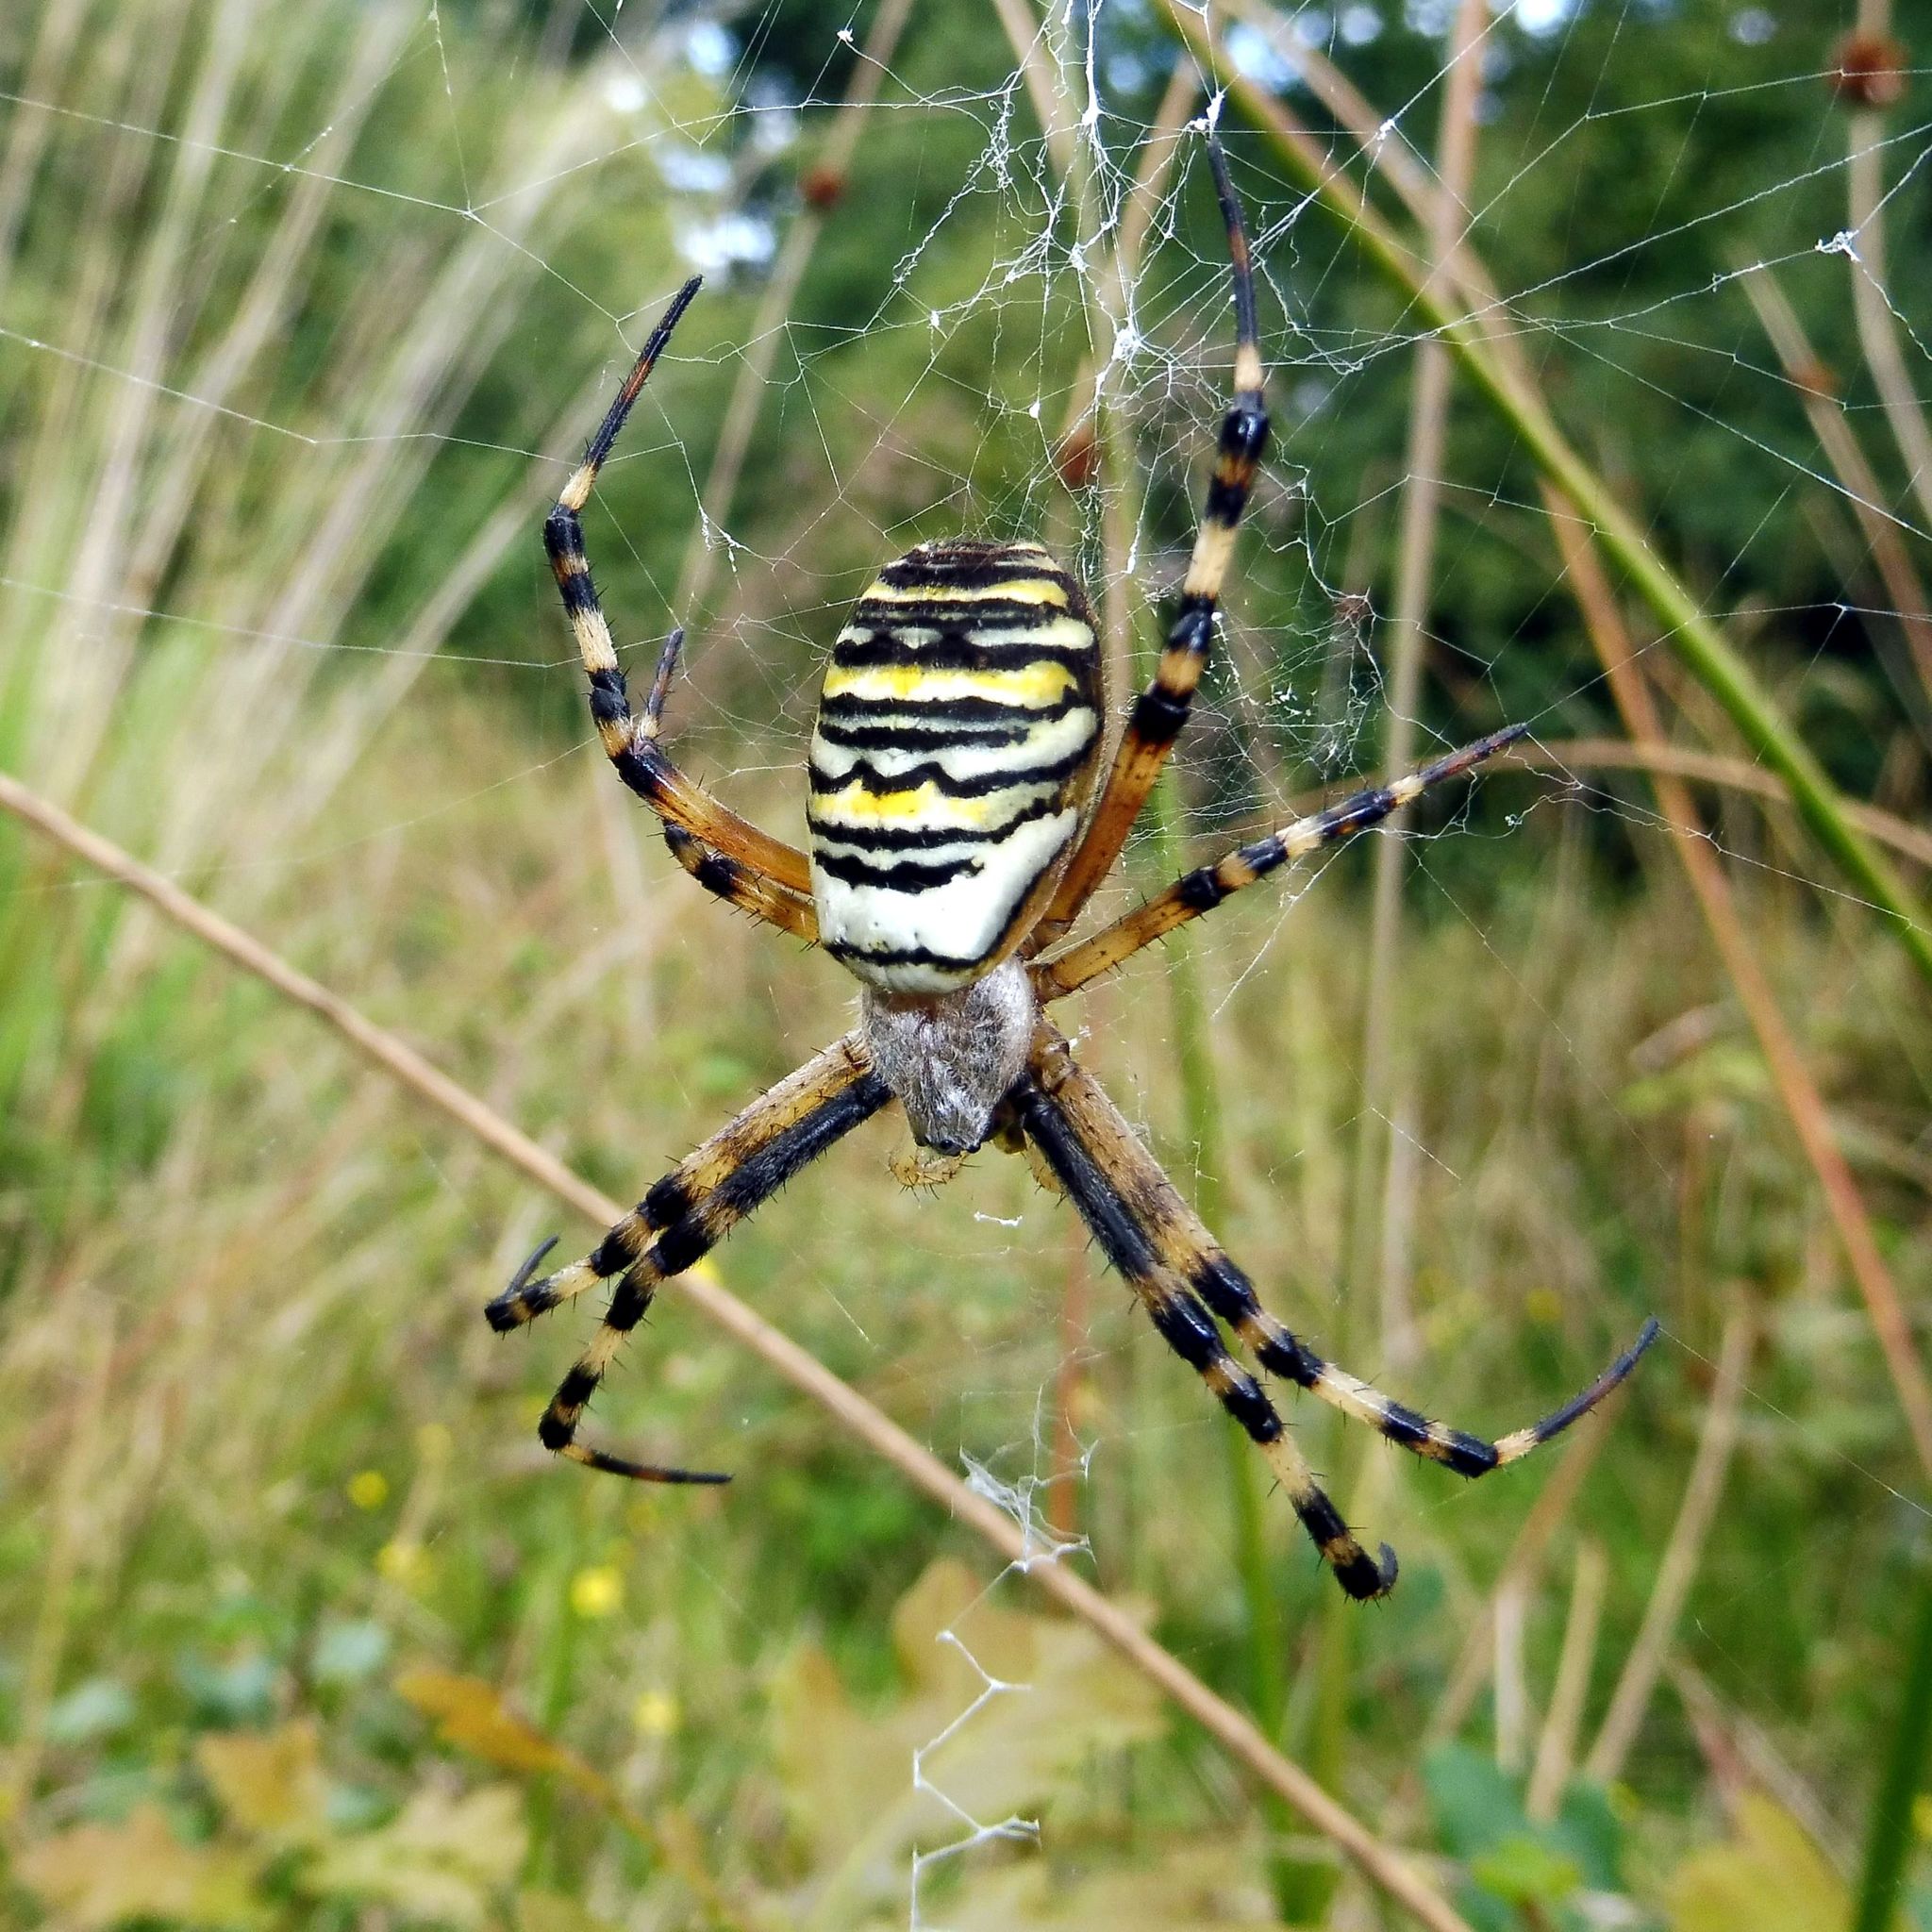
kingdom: Animalia
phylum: Arthropoda
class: Arachnida
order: Araneae
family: Araneidae
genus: Argiope
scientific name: Argiope bruennichi
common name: Wasp spider
